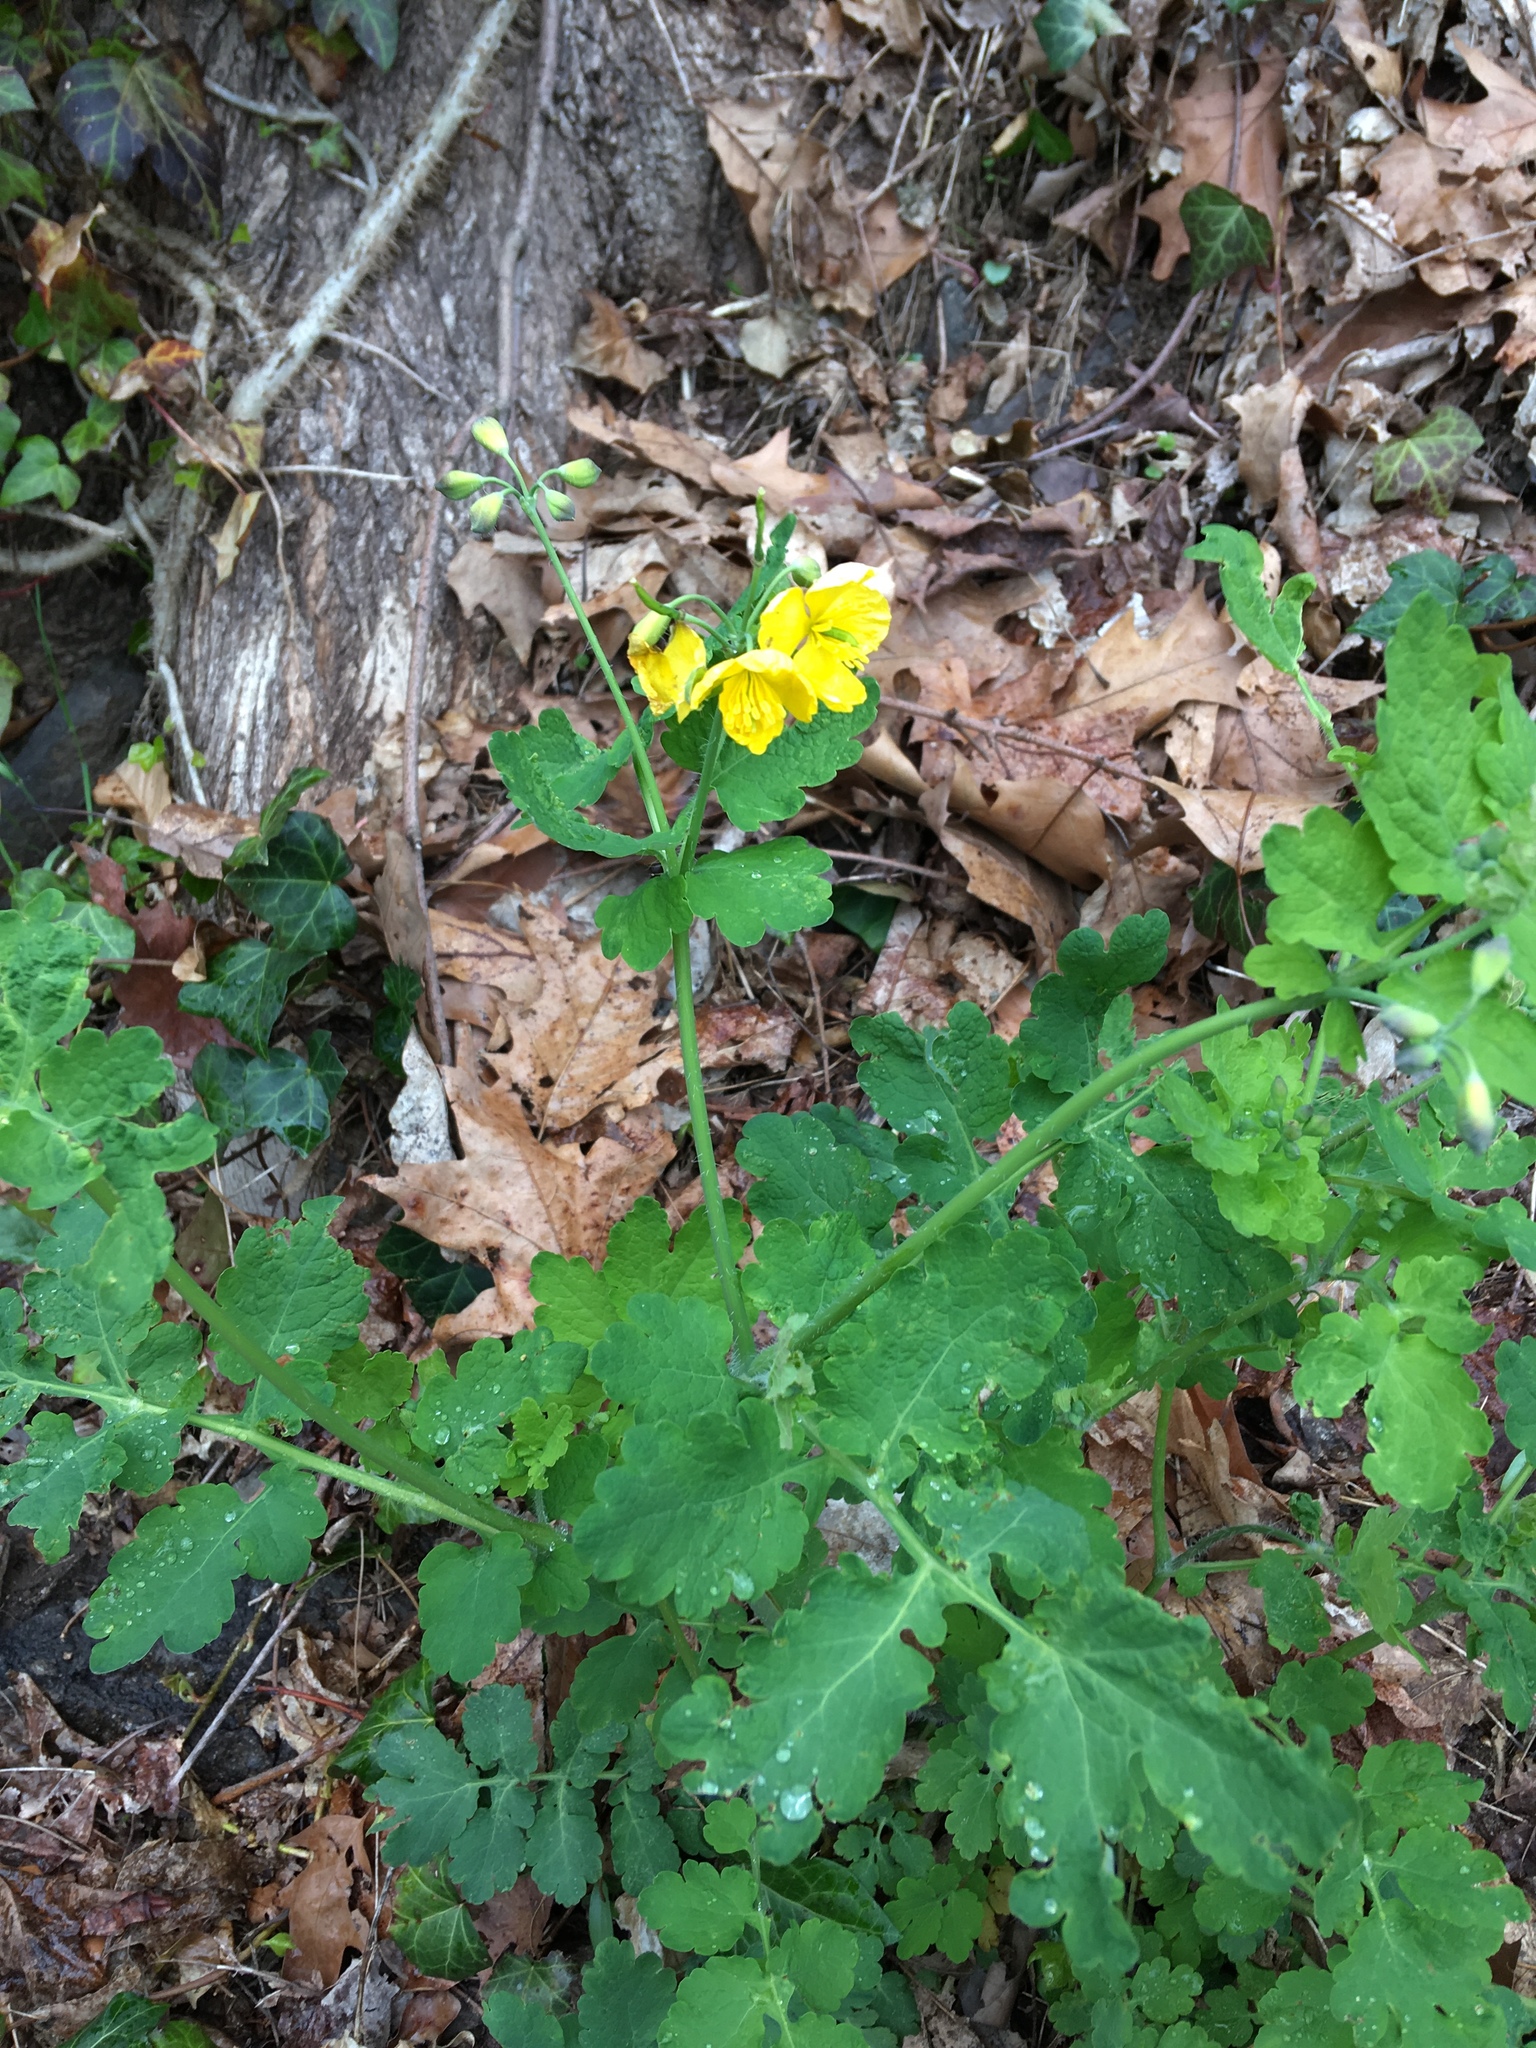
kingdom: Plantae
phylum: Tracheophyta
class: Magnoliopsida
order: Ranunculales
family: Papaveraceae
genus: Chelidonium
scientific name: Chelidonium majus
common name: Greater celandine
